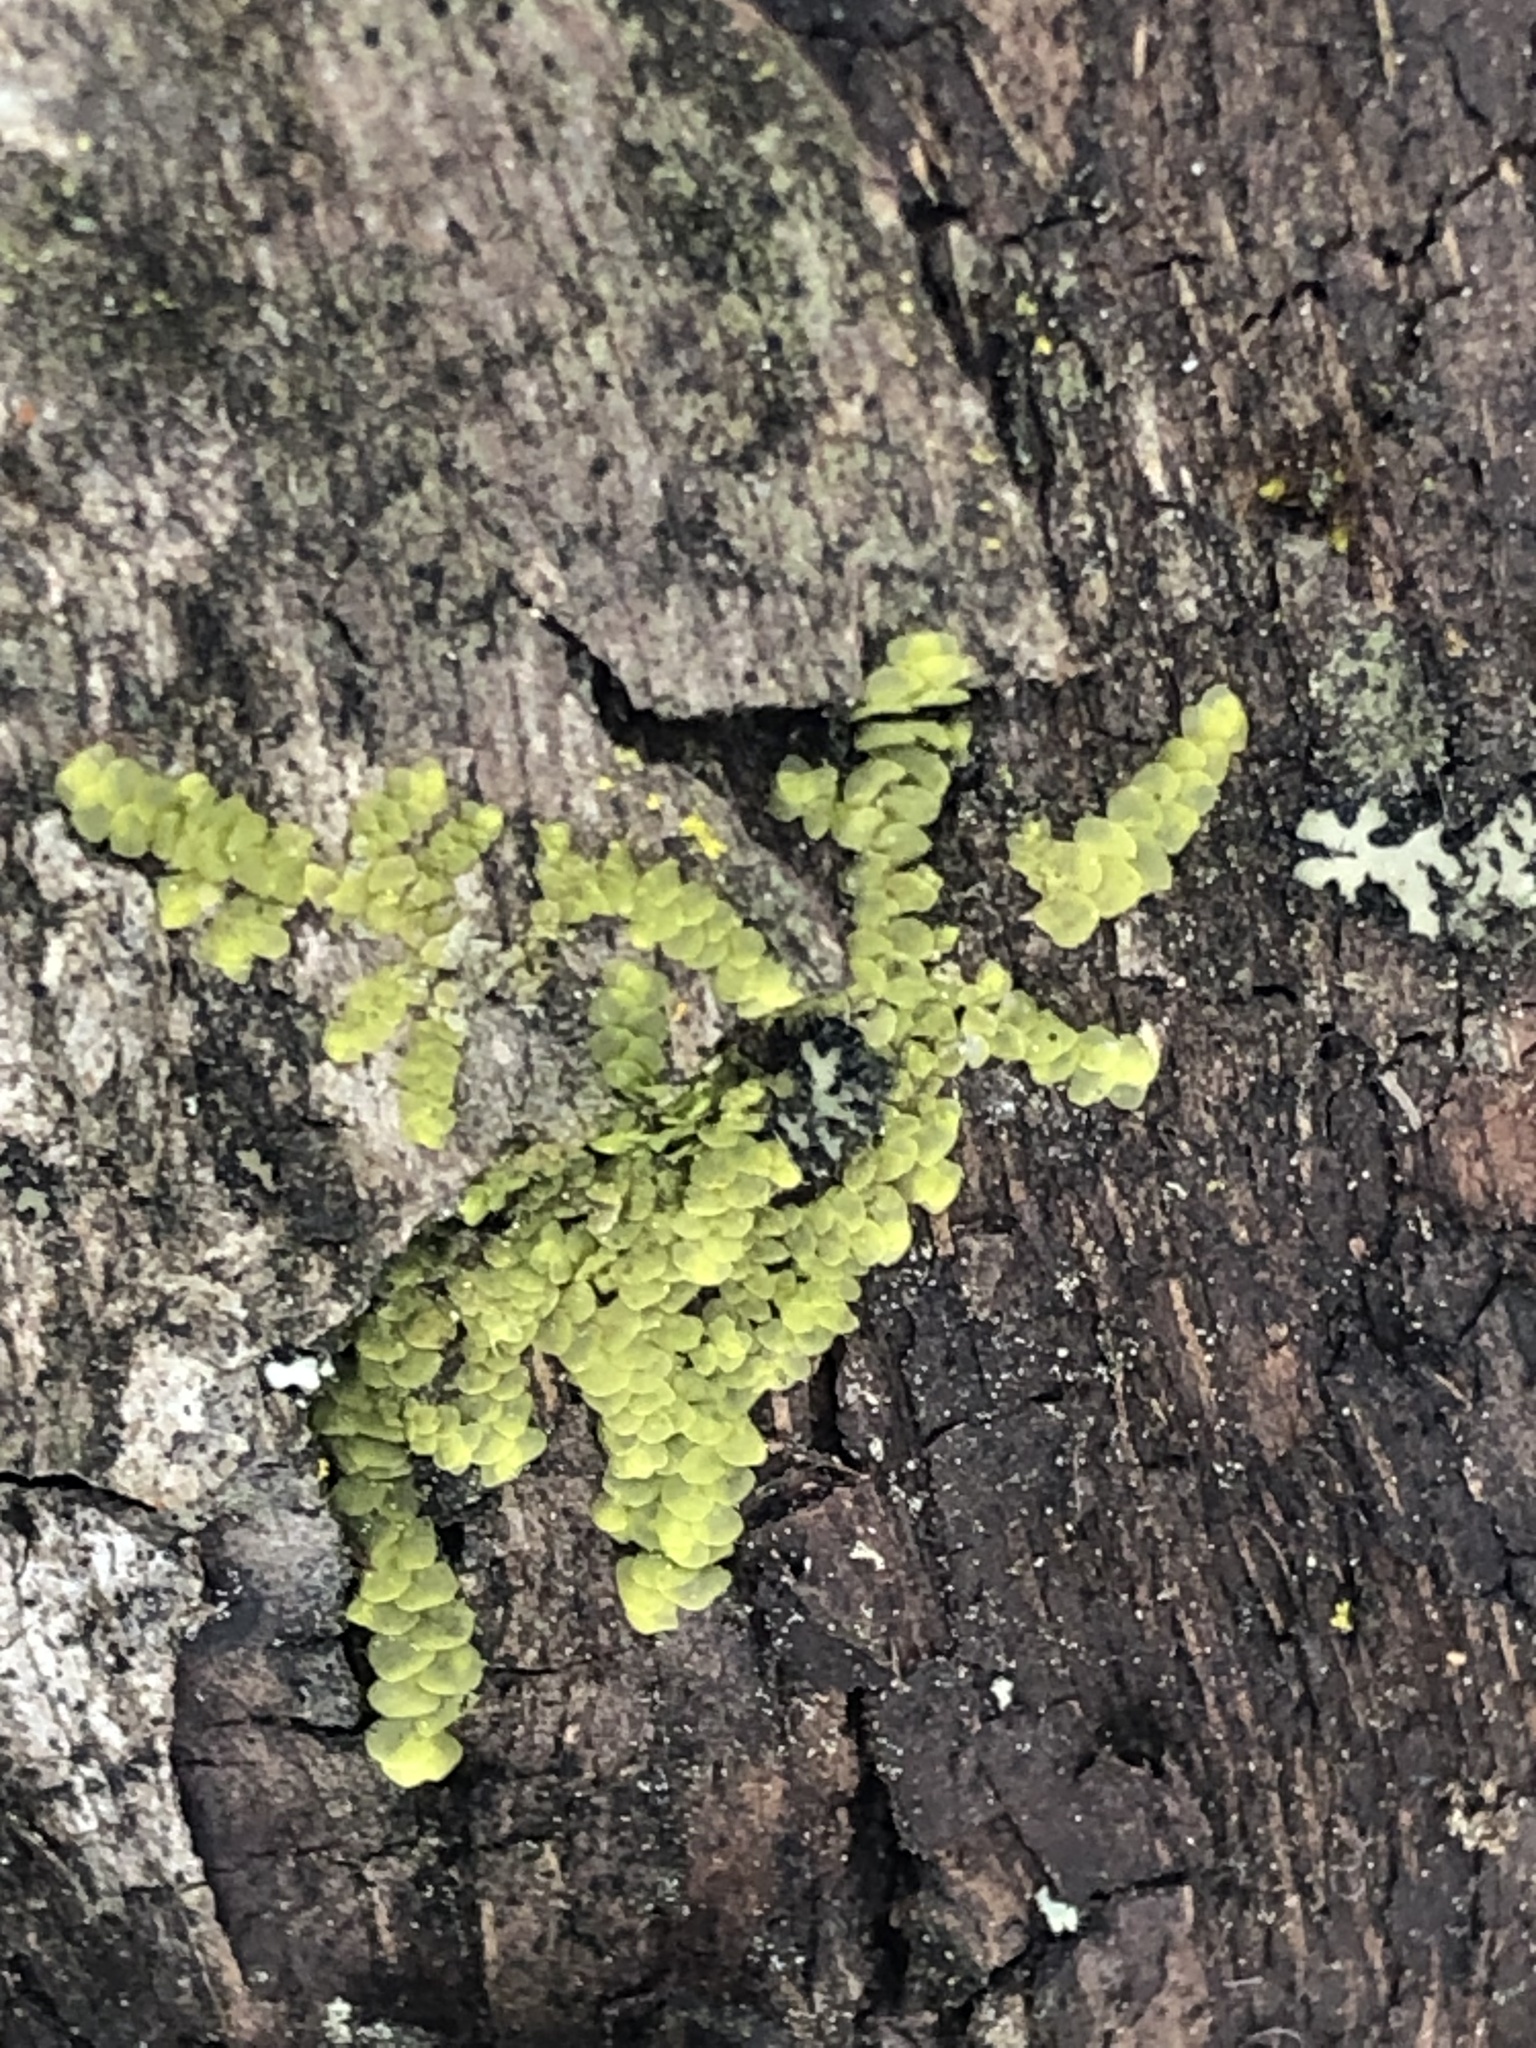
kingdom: Plantae
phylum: Marchantiophyta
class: Jungermanniopsida
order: Porellales
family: Radulaceae
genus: Radula
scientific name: Radula complanata
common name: Flat-leaved scalewort
